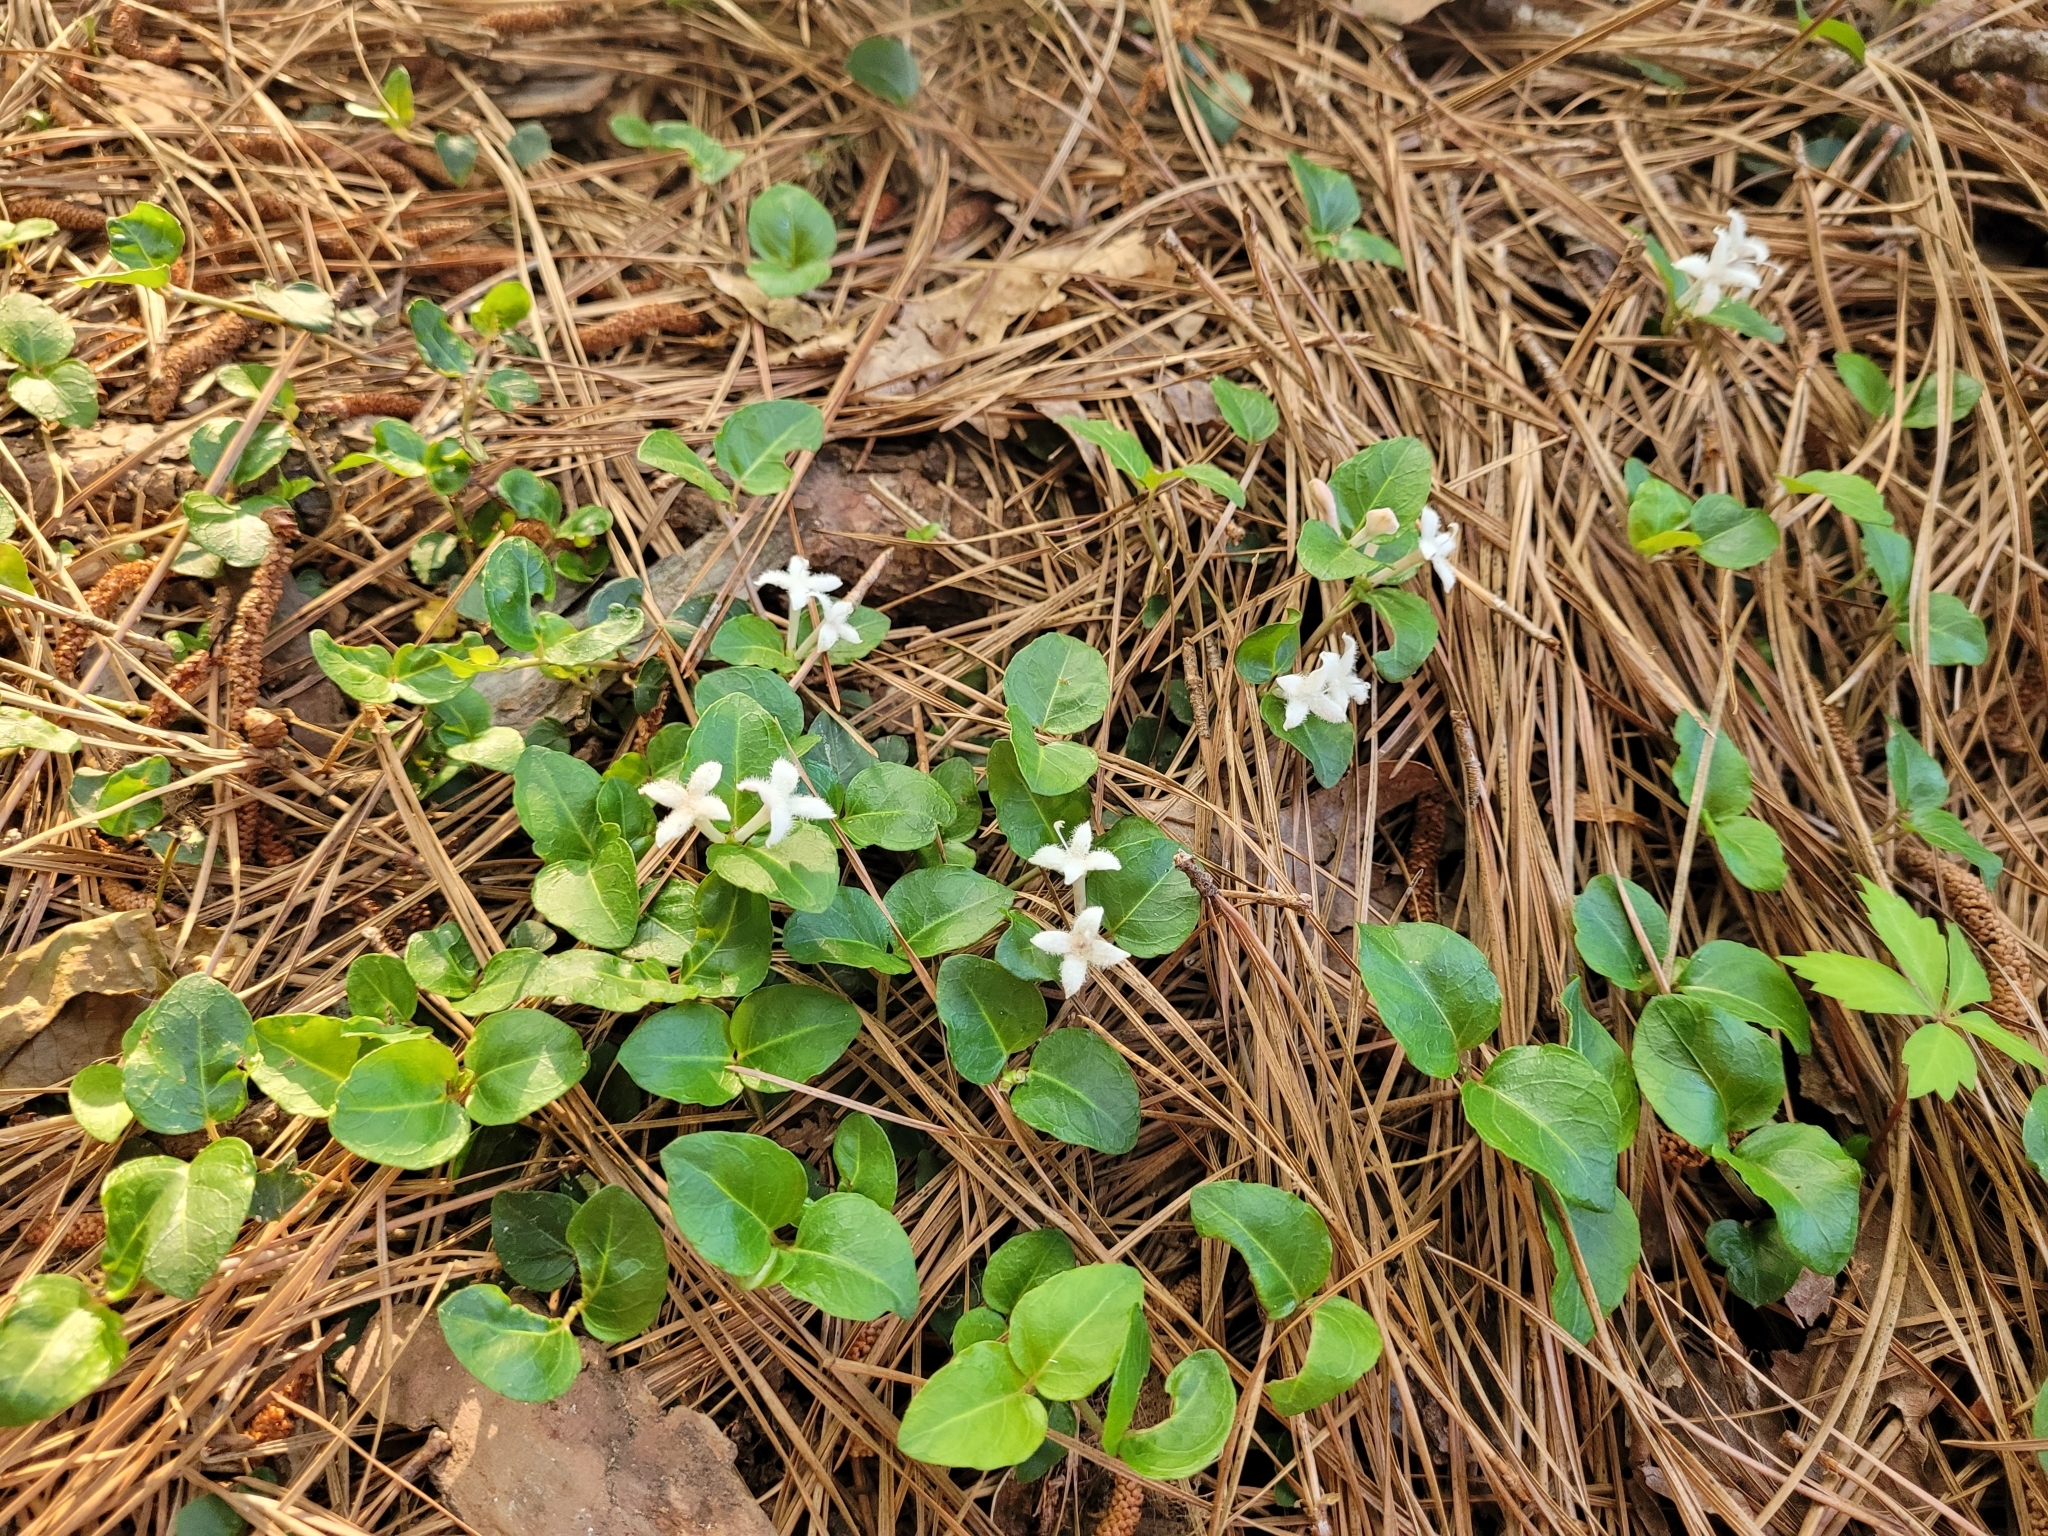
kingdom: Plantae
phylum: Tracheophyta
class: Magnoliopsida
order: Gentianales
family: Rubiaceae
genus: Mitchella
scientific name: Mitchella repens
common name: Partridge-berry
